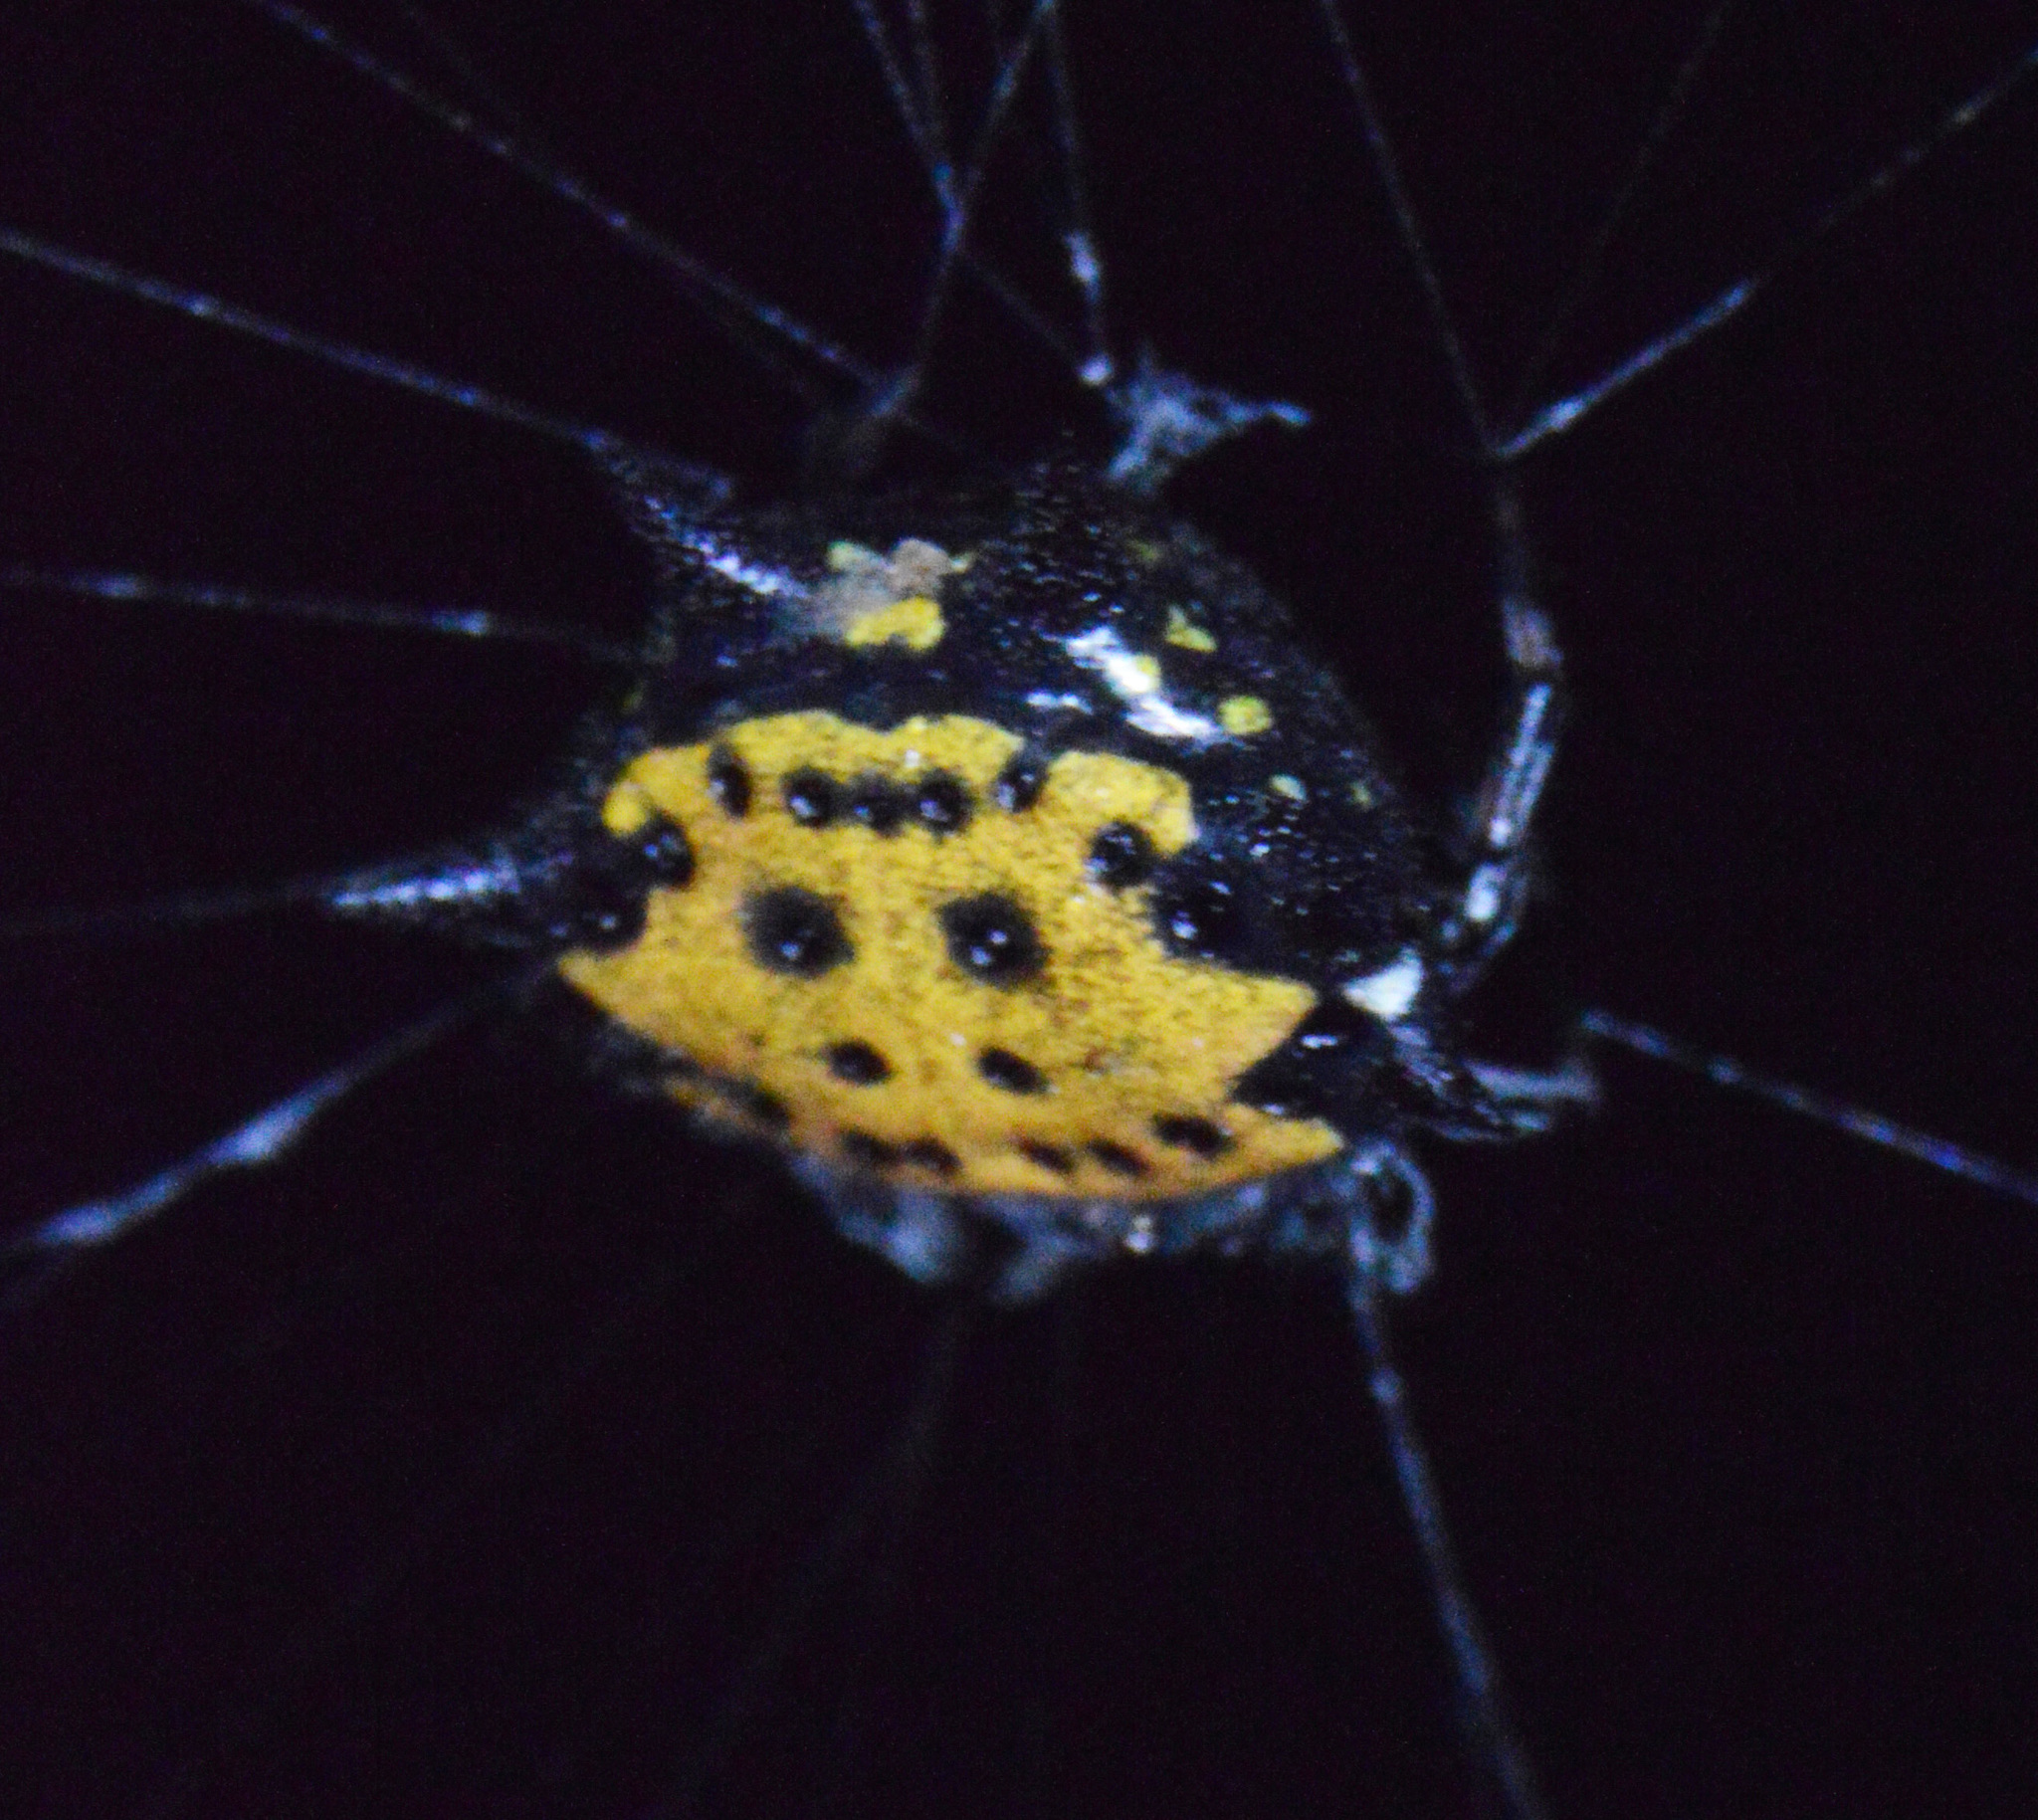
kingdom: Animalia
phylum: Arthropoda
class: Arachnida
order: Araneae
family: Araneidae
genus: Gasteracantha
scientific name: Gasteracantha cancriformis
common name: Orb weavers
